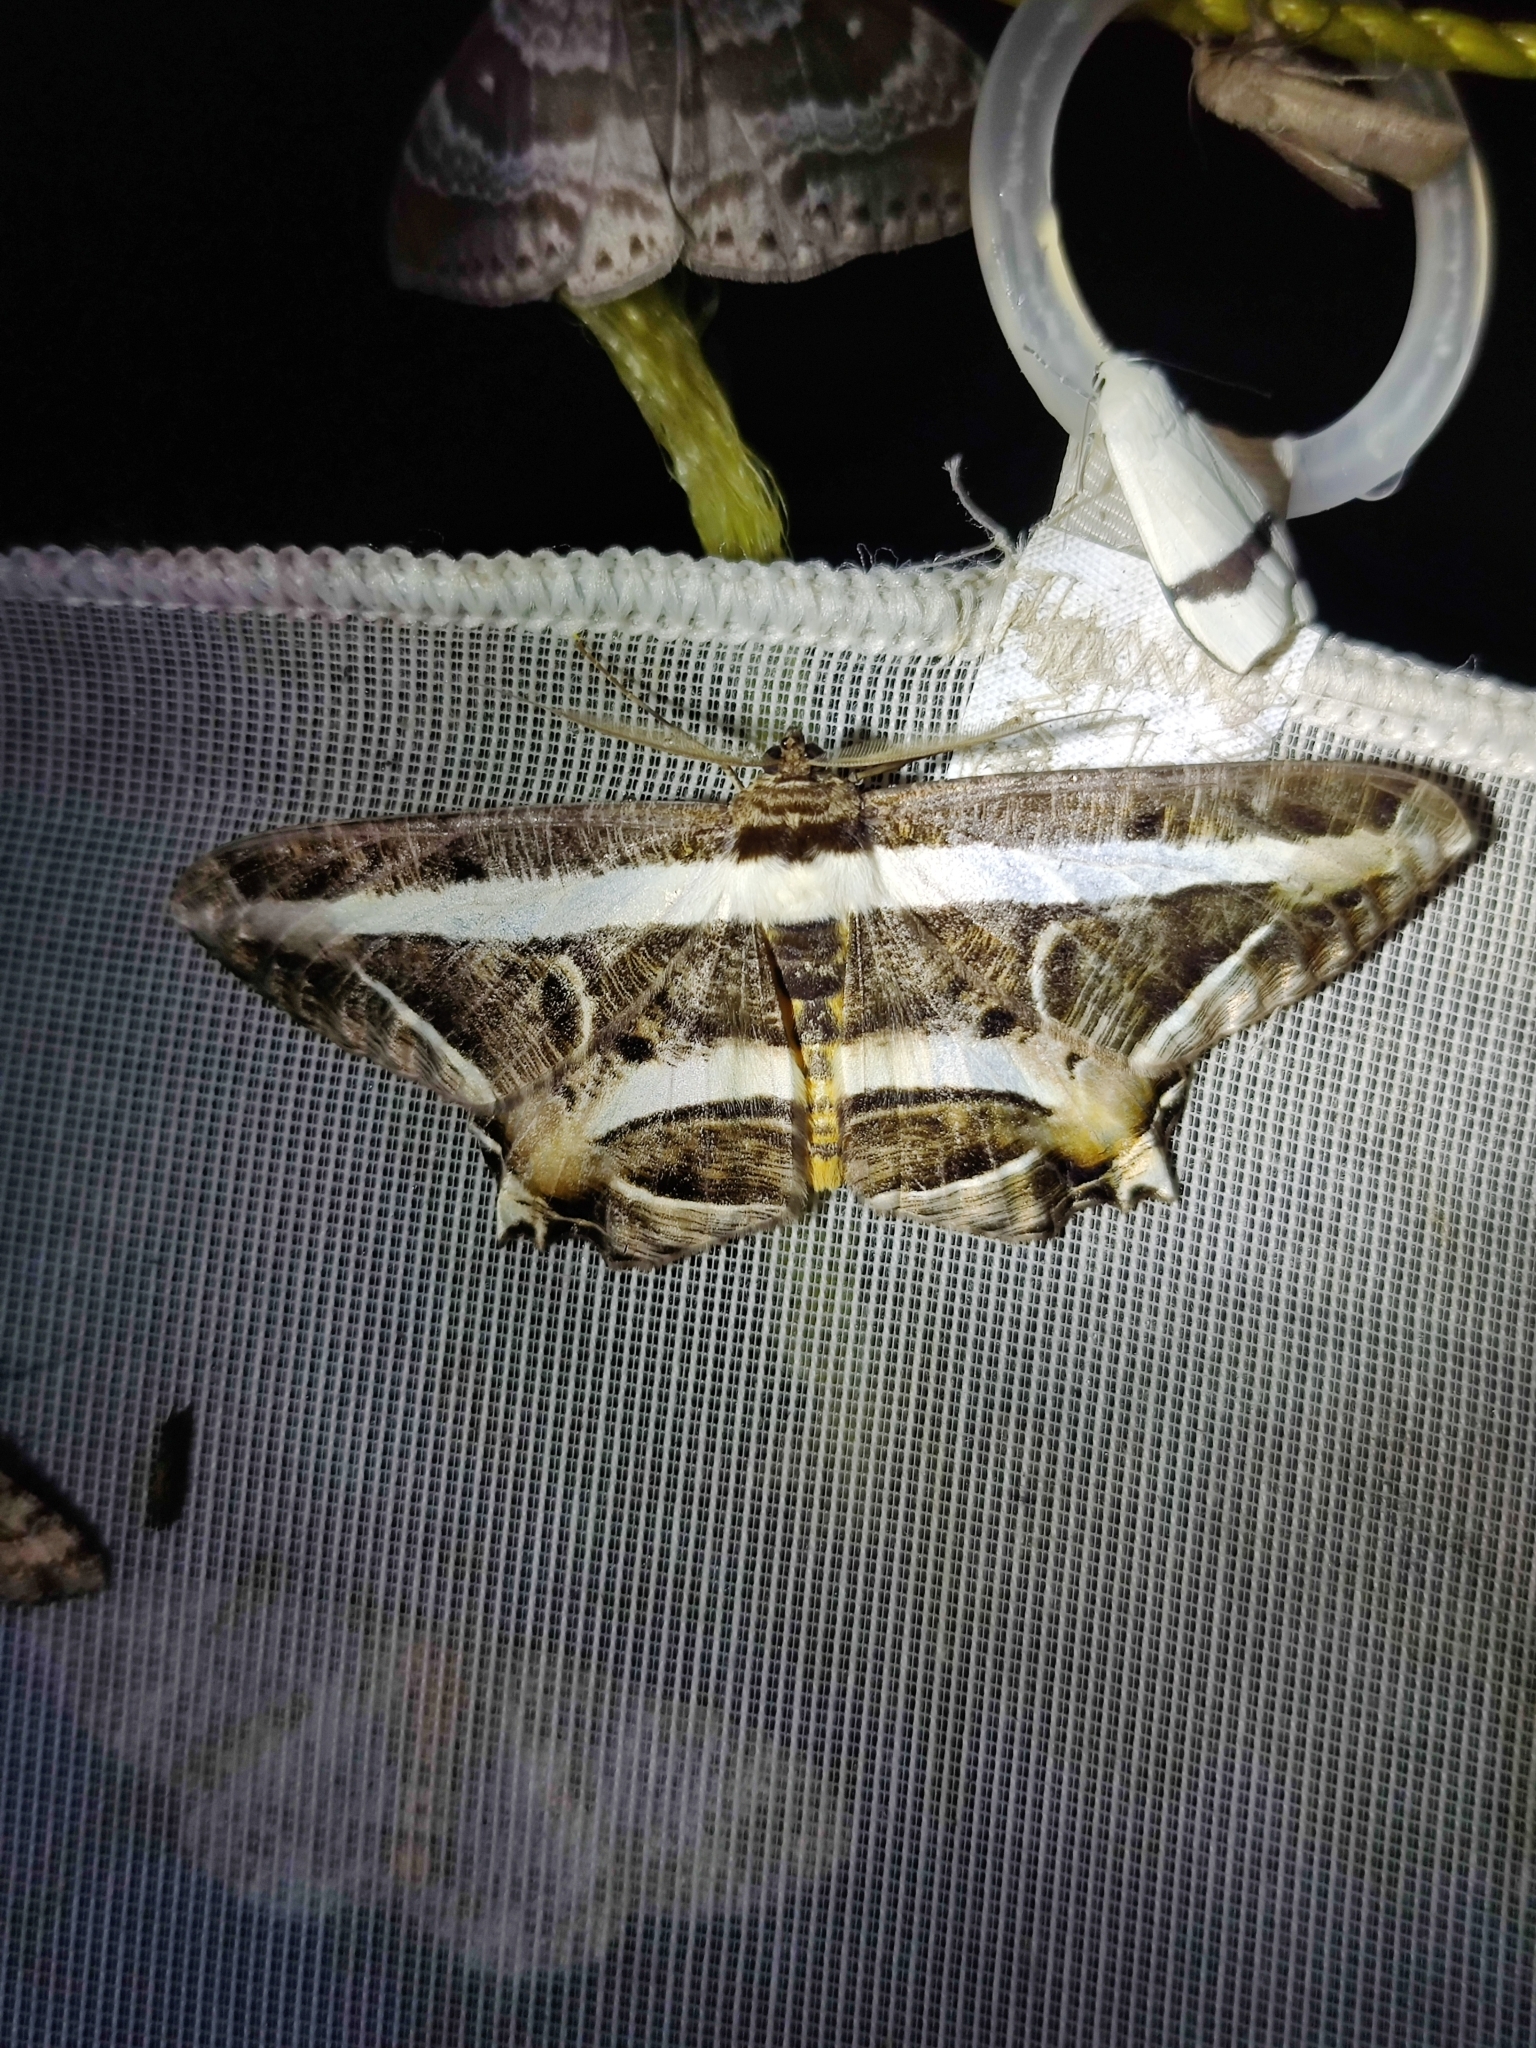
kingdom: Animalia
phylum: Arthropoda
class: Insecta
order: Lepidoptera
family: Geometridae
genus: Chorodna
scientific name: Chorodna fulgurita
